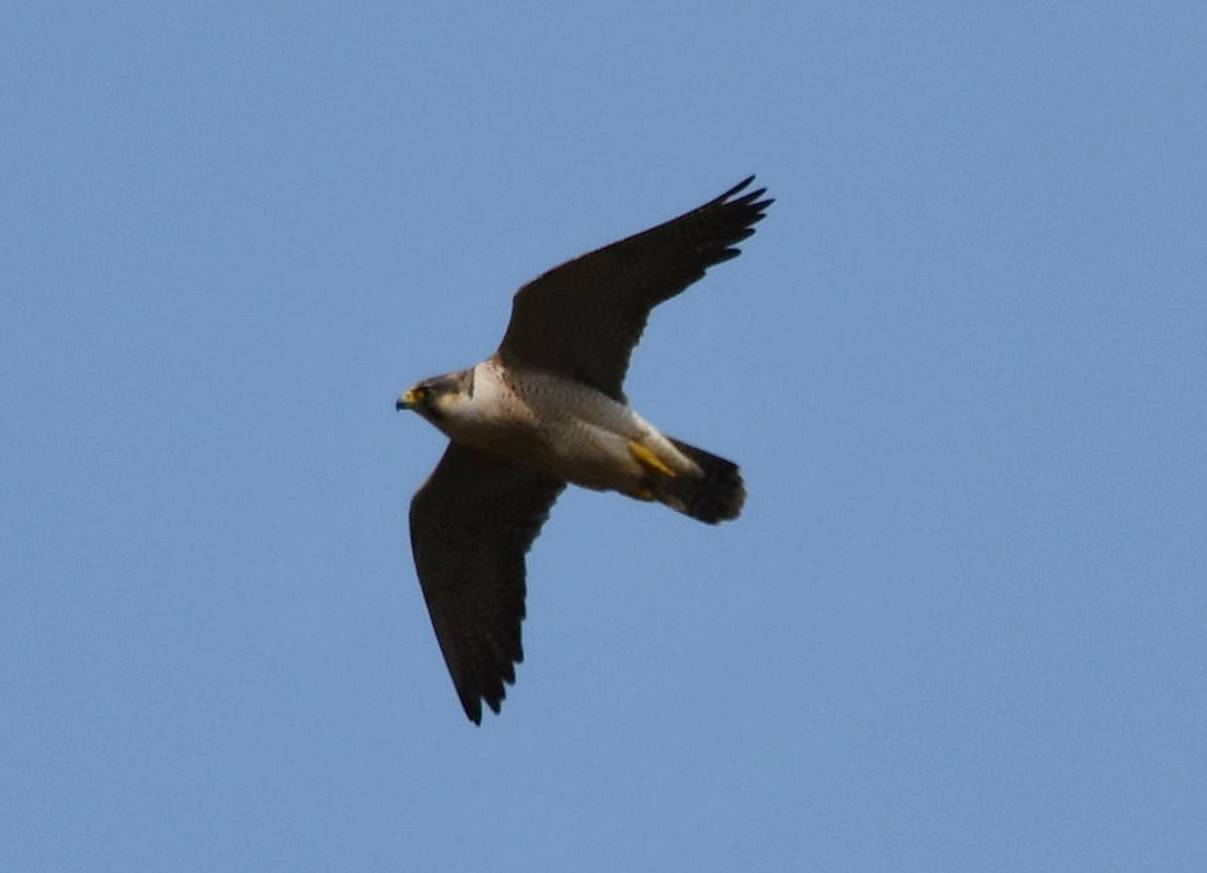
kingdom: Animalia
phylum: Chordata
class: Aves
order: Falconiformes
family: Falconidae
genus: Falco
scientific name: Falco peregrinus
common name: Peregrine falcon
